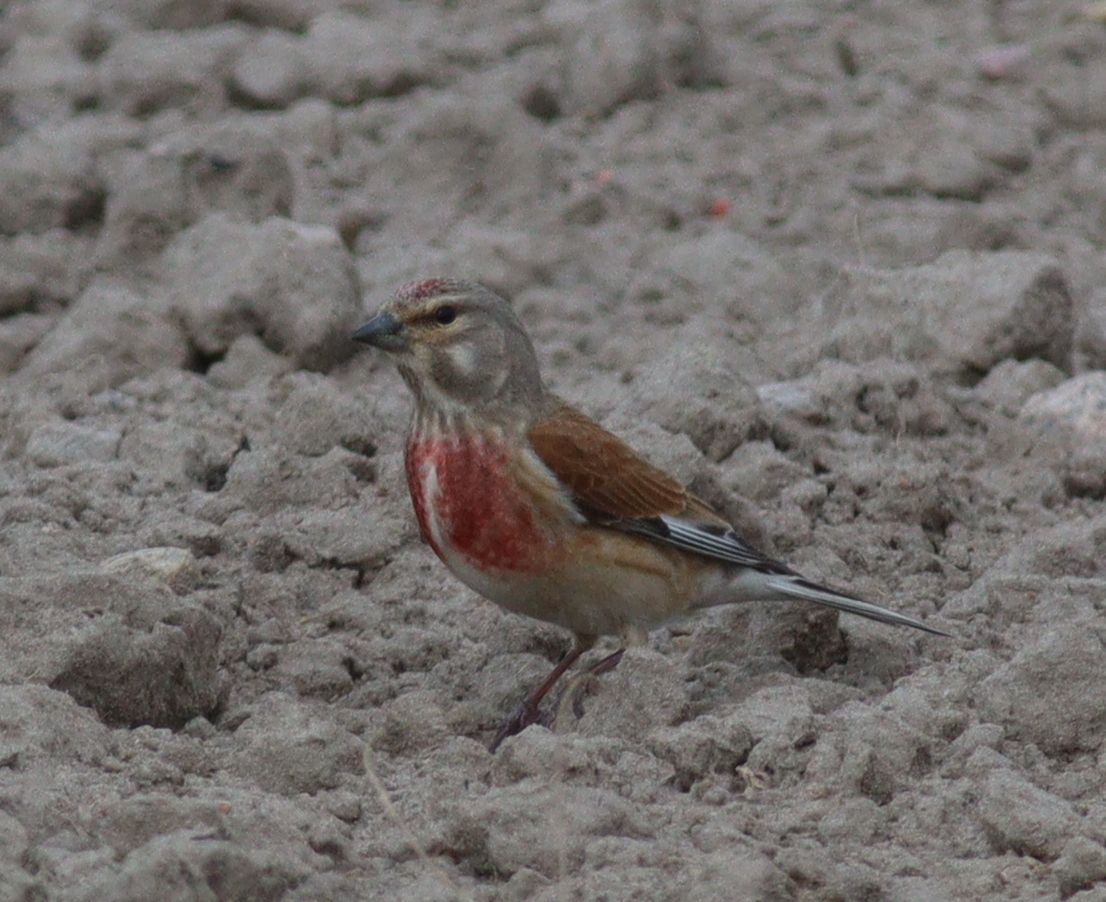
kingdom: Animalia
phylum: Chordata
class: Aves
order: Passeriformes
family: Fringillidae
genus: Linaria
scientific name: Linaria cannabina
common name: Common linnet
